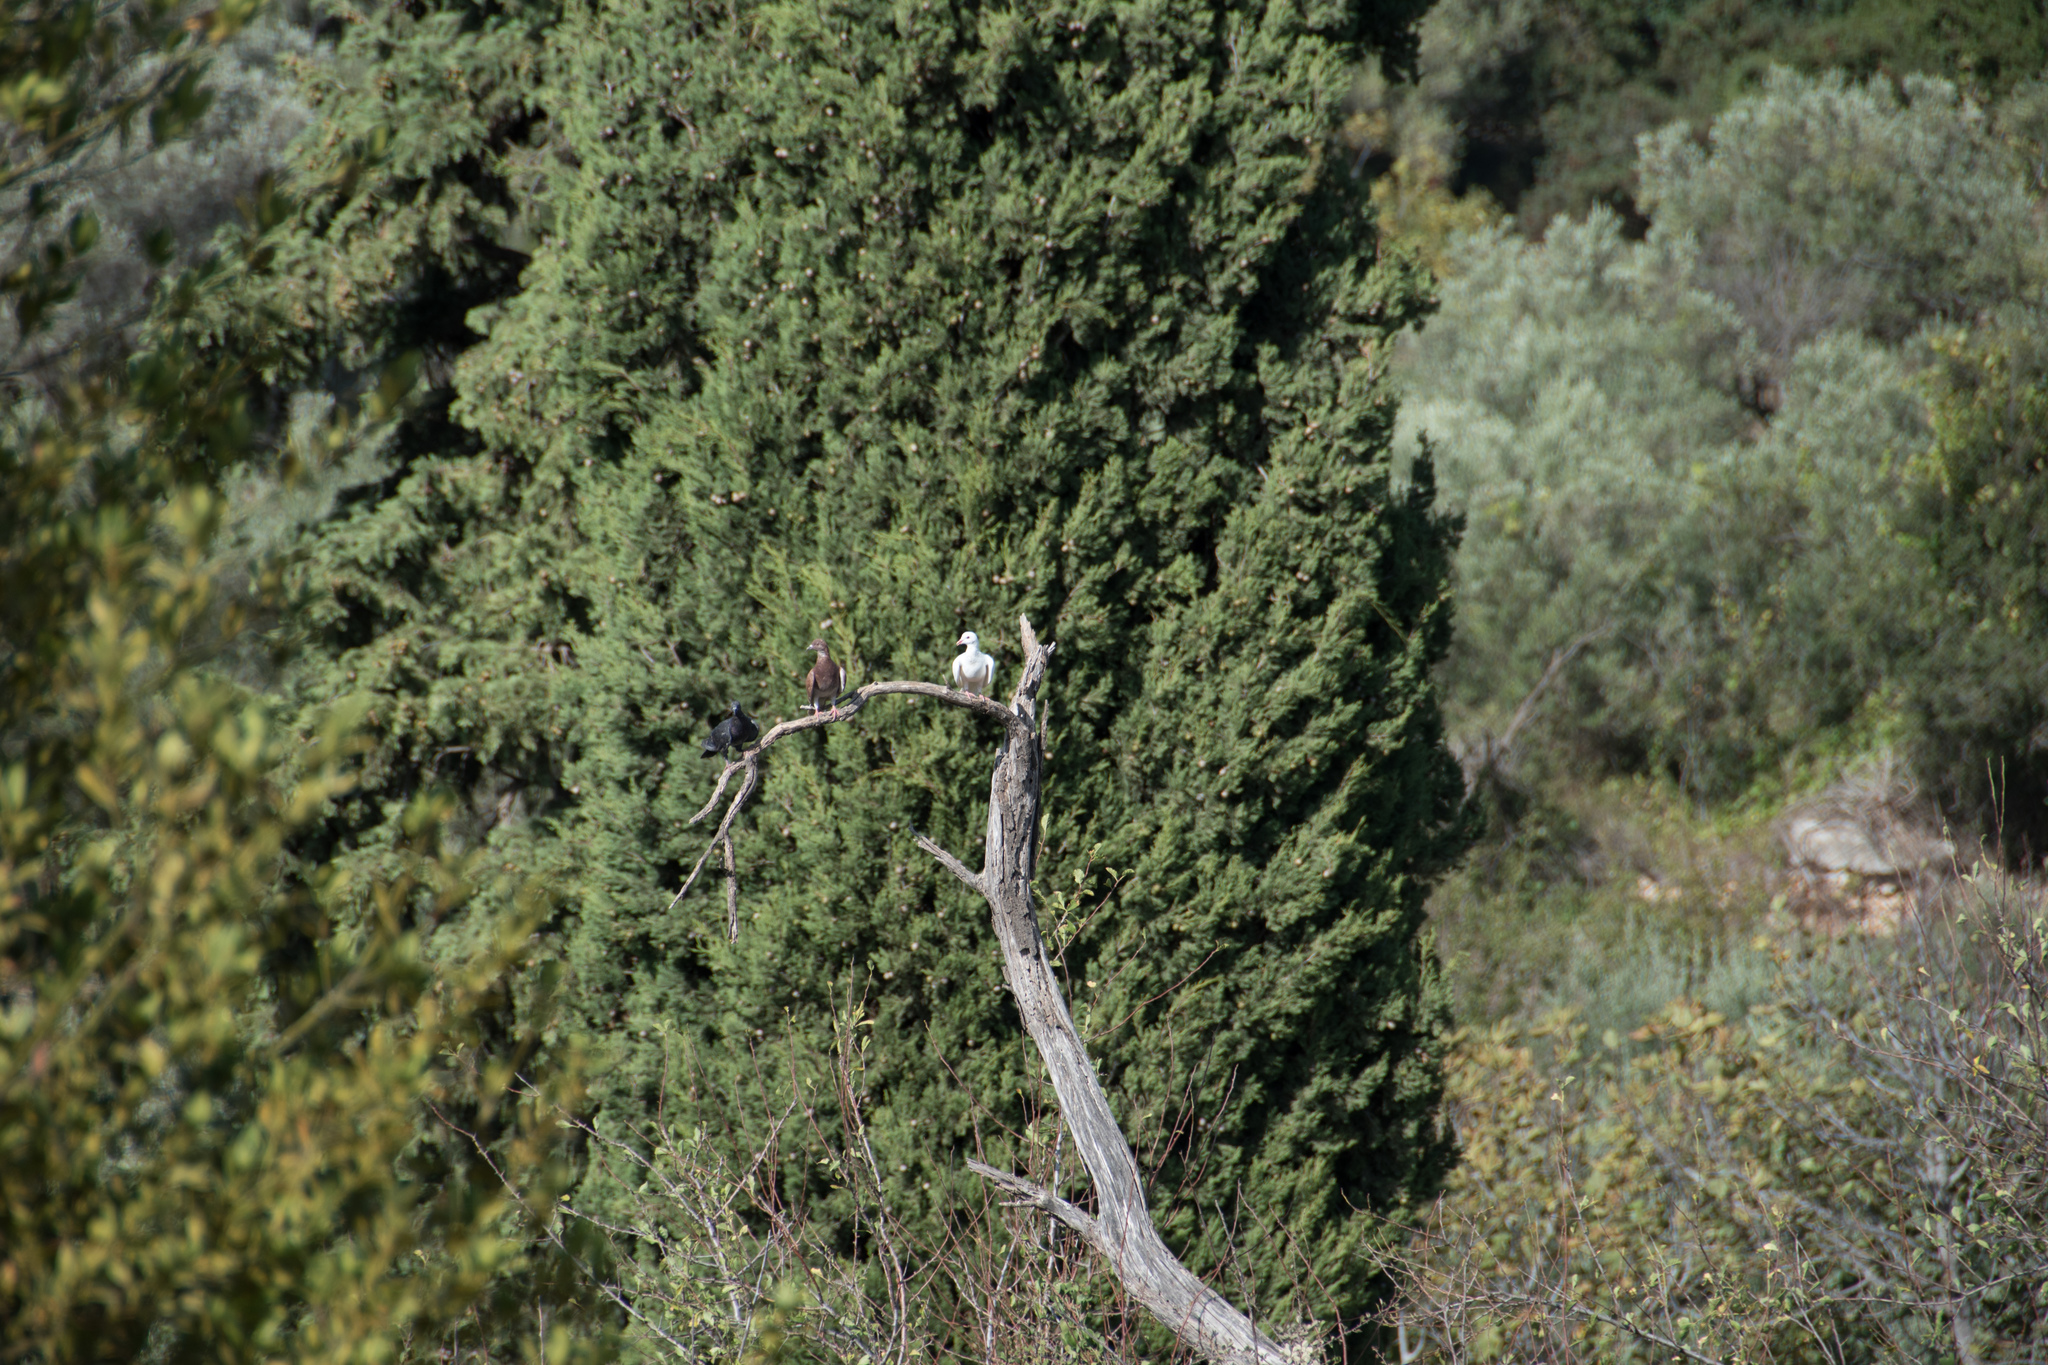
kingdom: Animalia
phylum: Chordata
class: Aves
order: Columbiformes
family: Columbidae
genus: Columba
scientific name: Columba livia
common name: Rock pigeon
